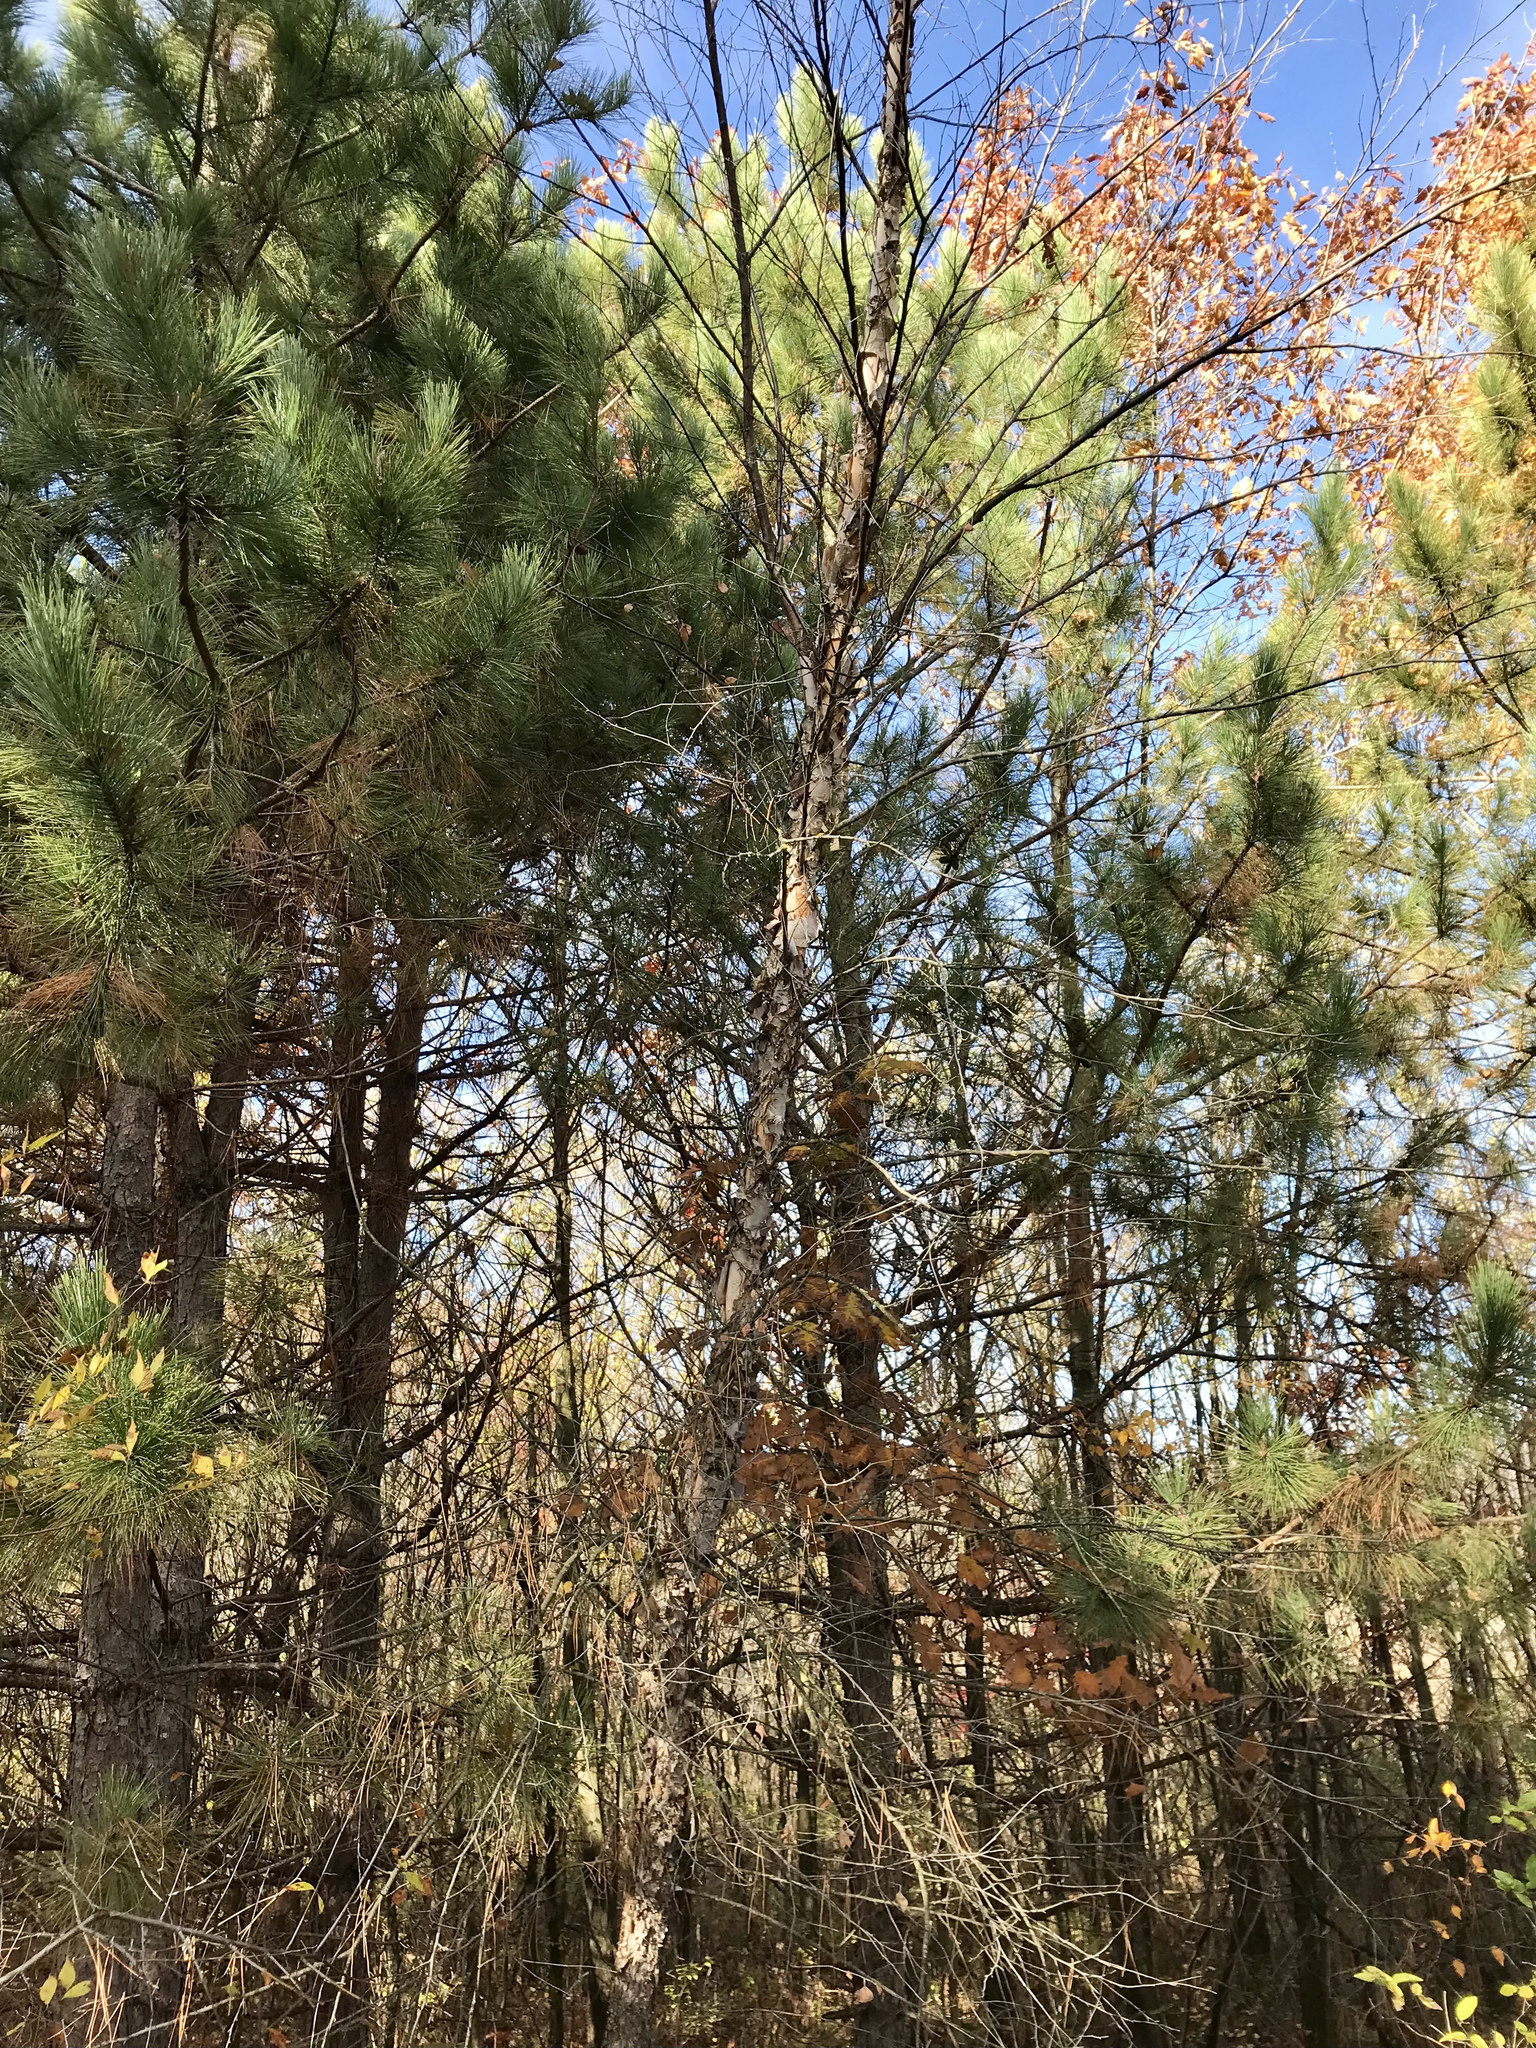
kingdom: Plantae
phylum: Tracheophyta
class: Magnoliopsida
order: Fagales
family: Betulaceae
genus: Betula
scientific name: Betula nigra
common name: Black birch
